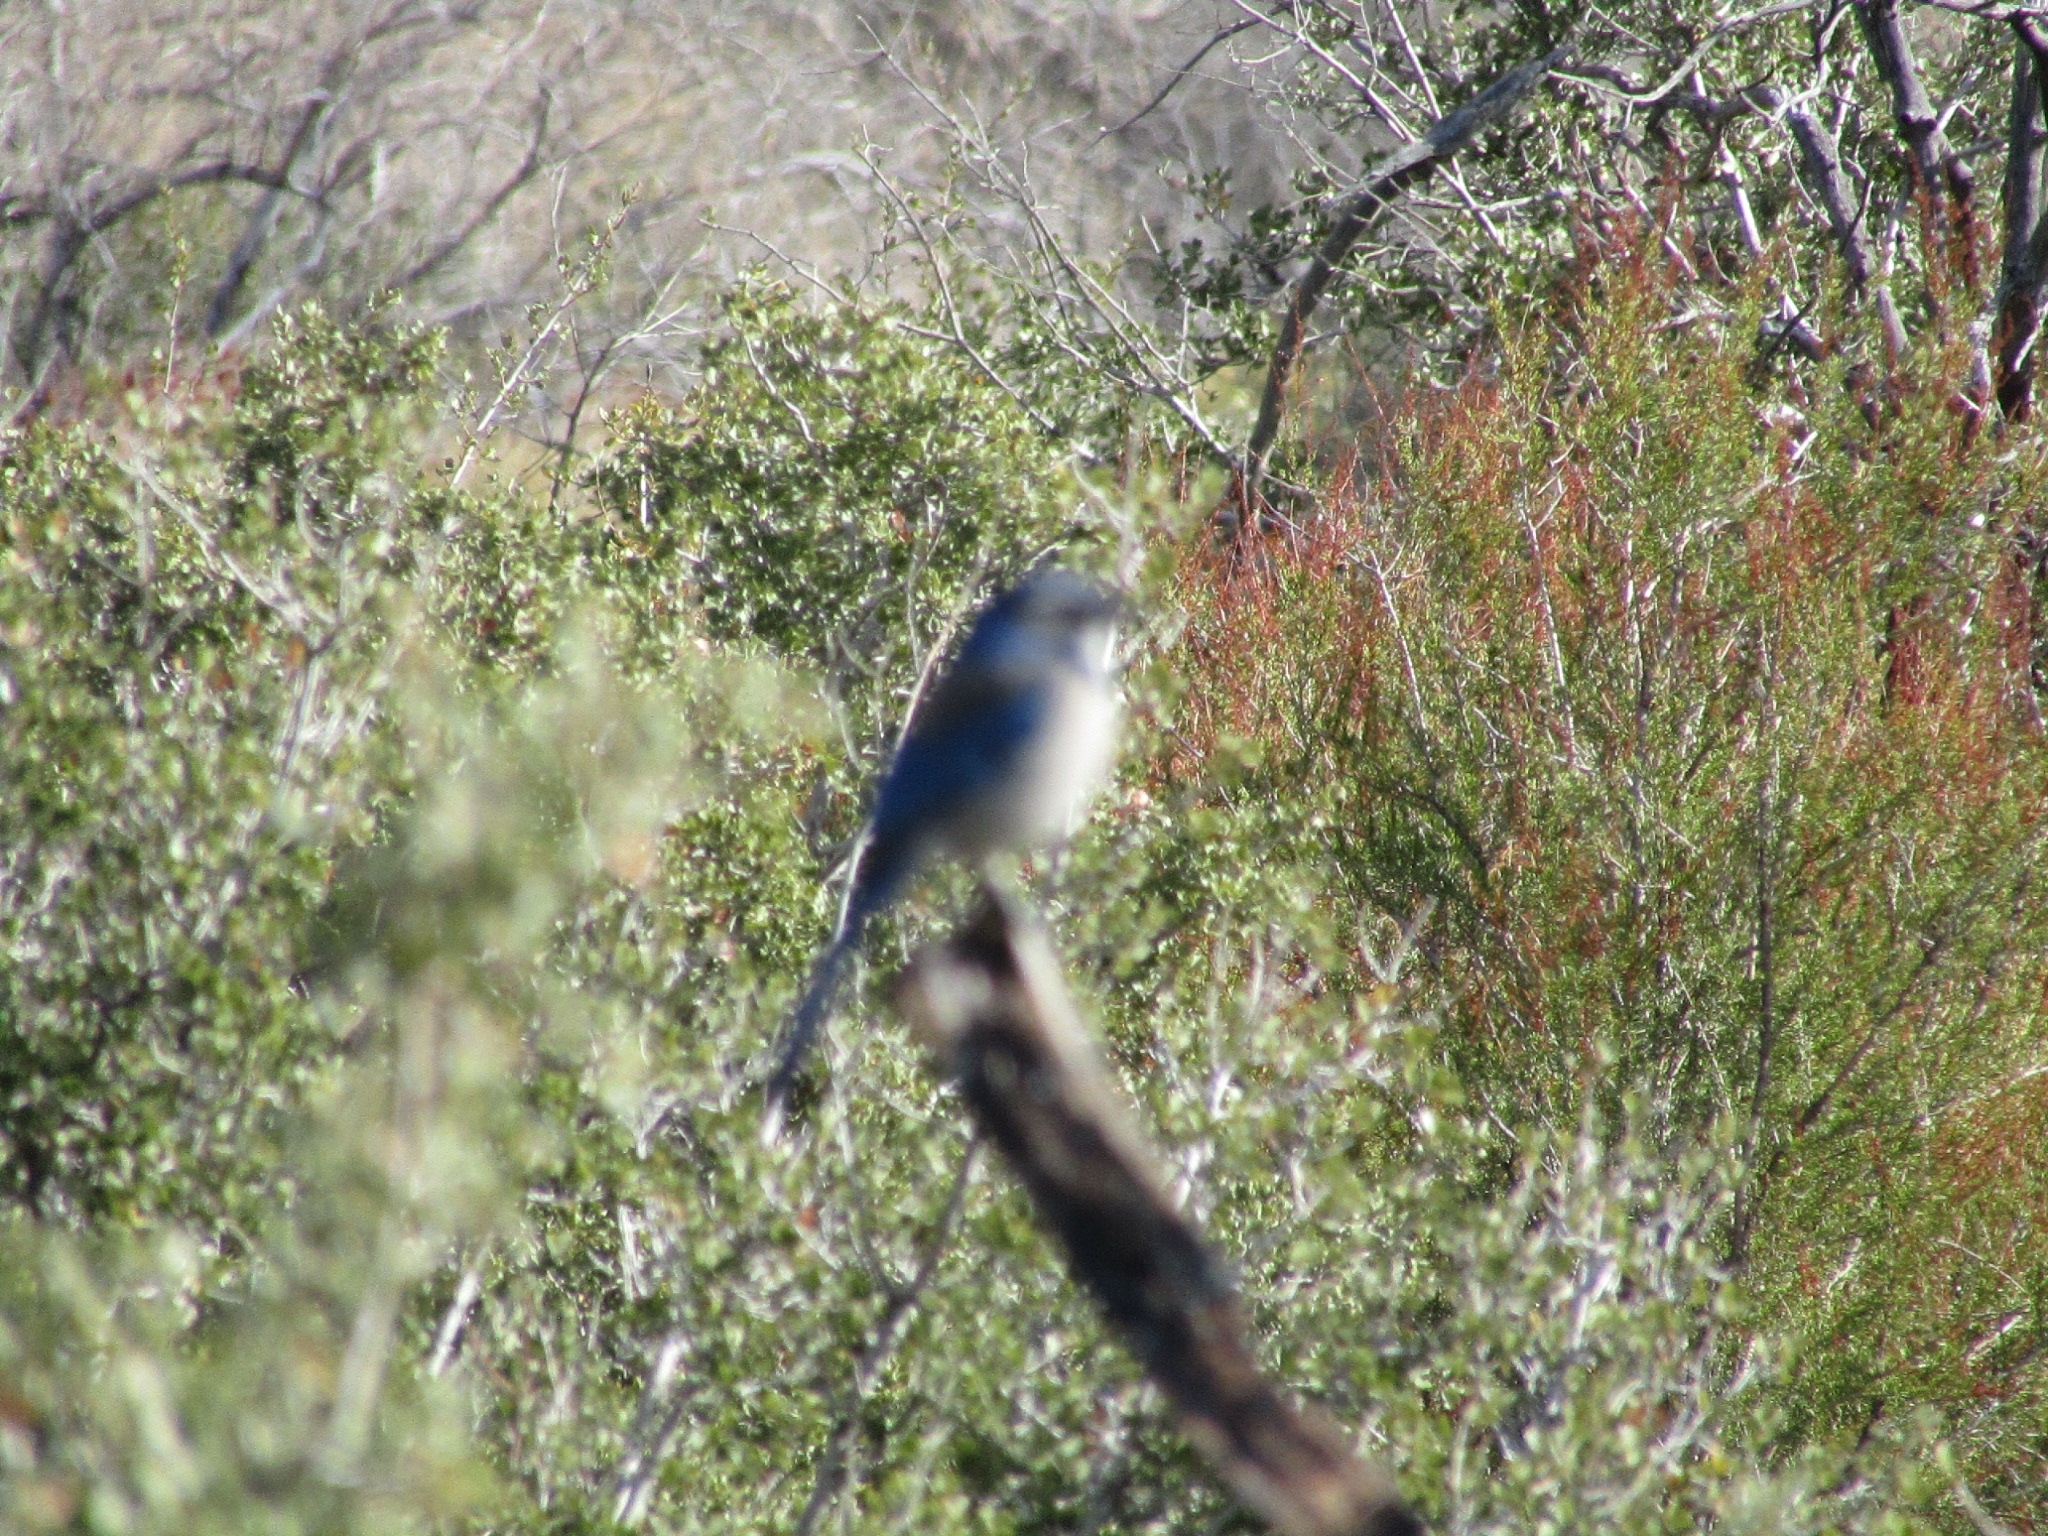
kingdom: Animalia
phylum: Chordata
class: Aves
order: Passeriformes
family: Corvidae
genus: Aphelocoma
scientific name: Aphelocoma californica
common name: California scrub-jay
